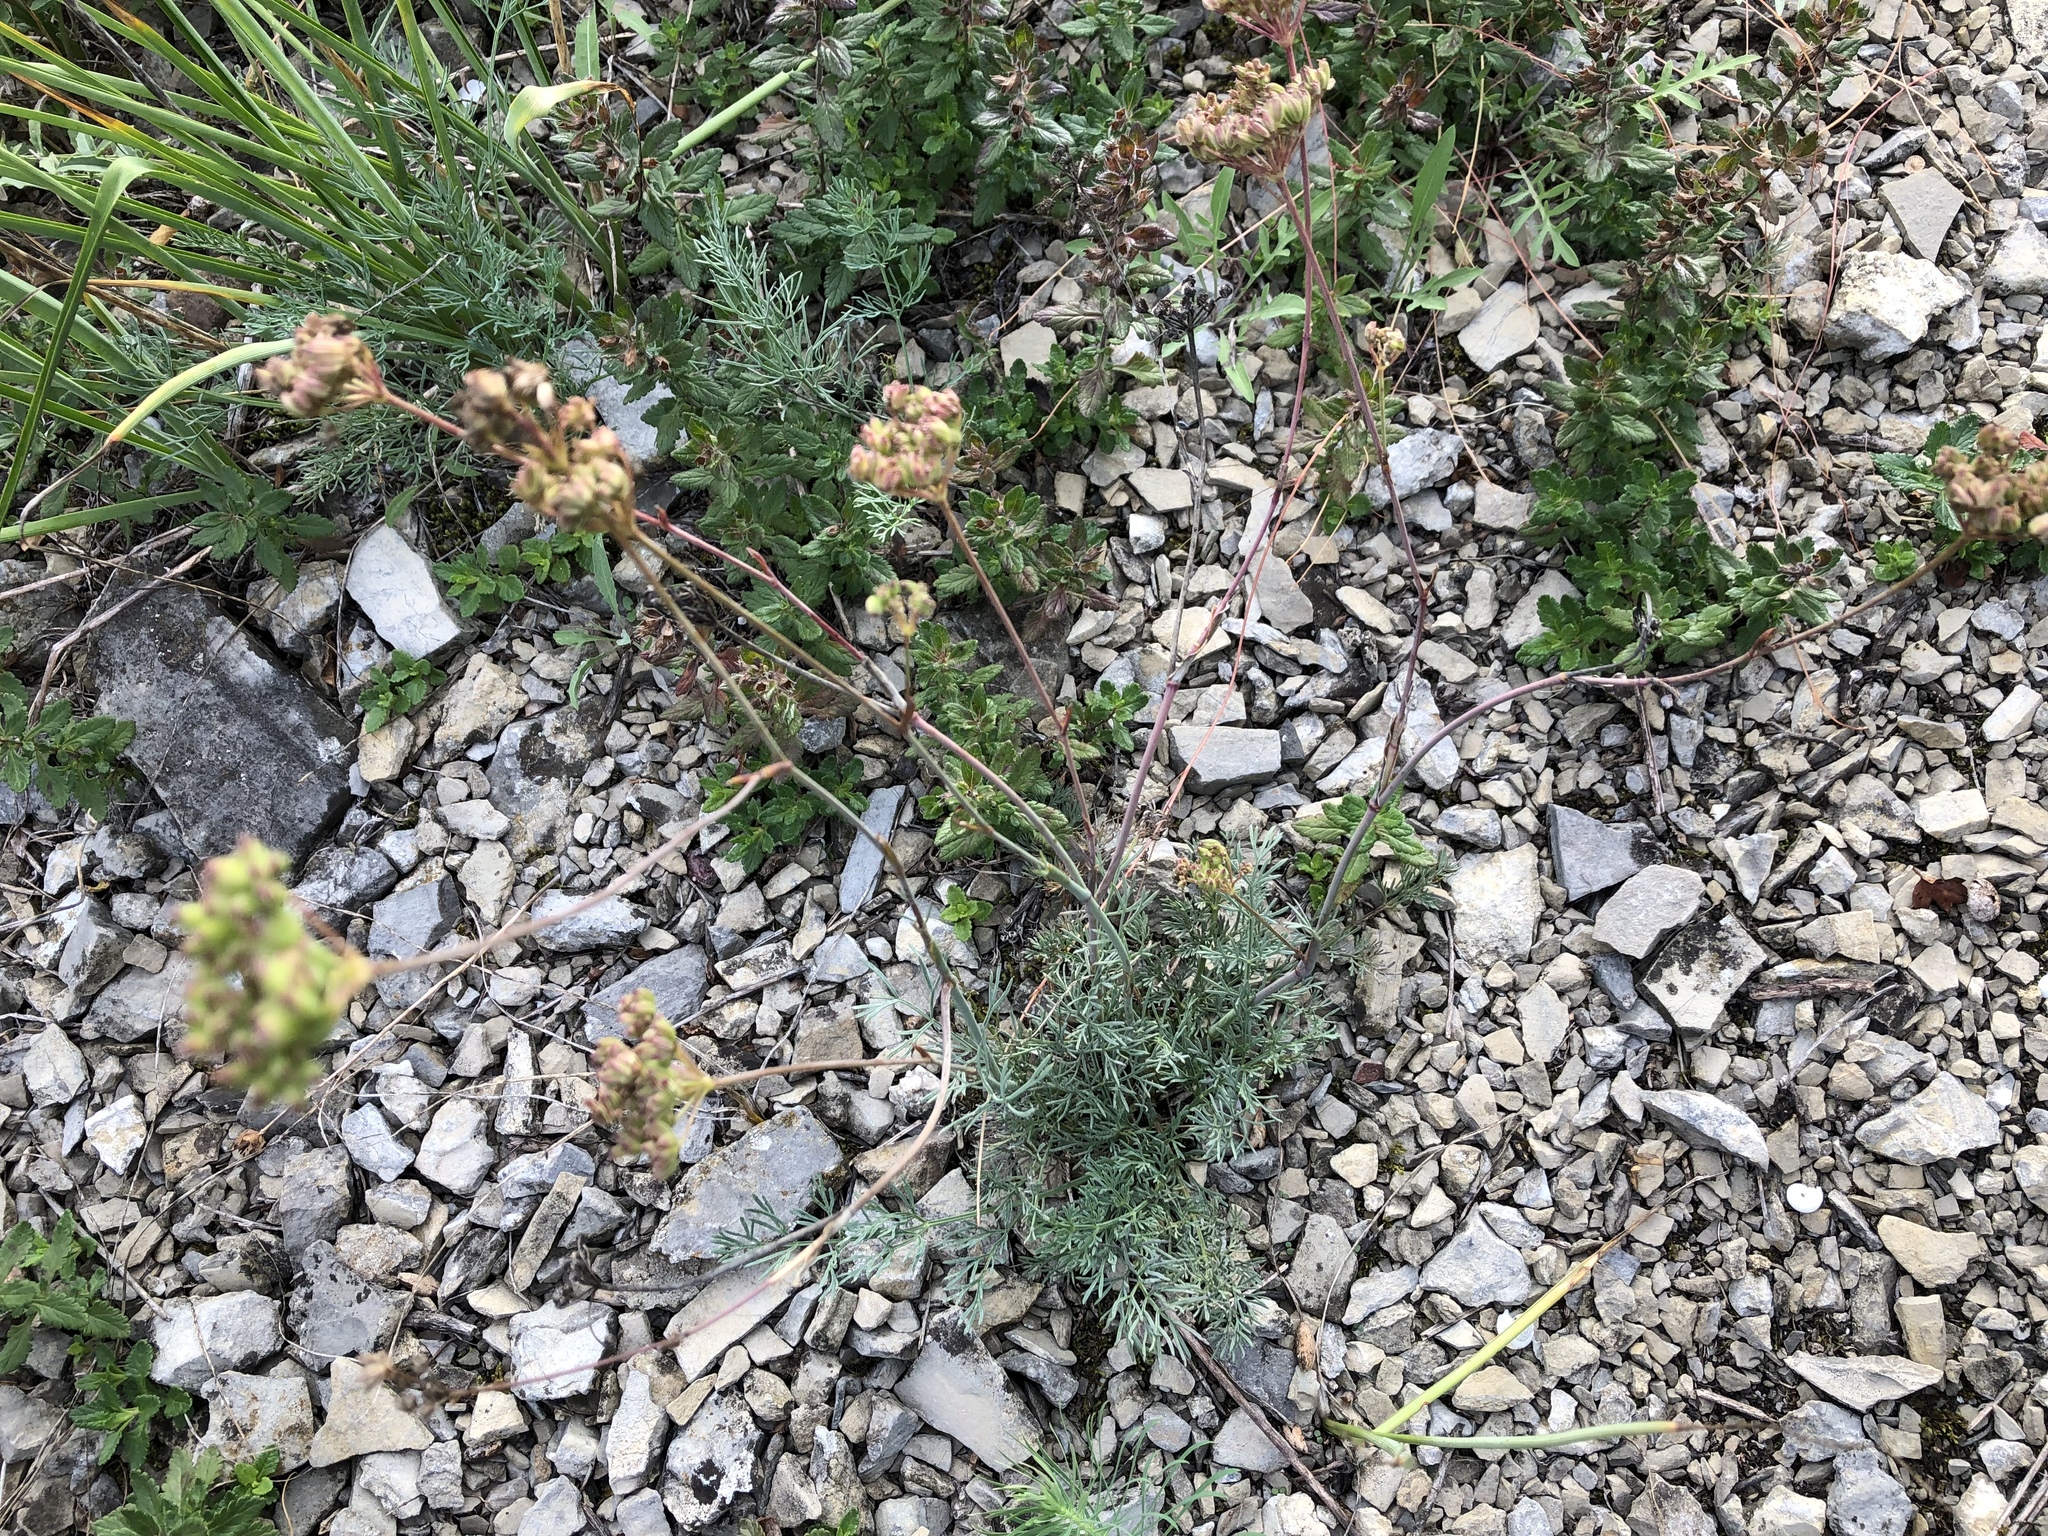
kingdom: Plantae
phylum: Tracheophyta
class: Magnoliopsida
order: Apiales
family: Apiaceae
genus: Hippomarathrum
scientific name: Hippomarathrum
